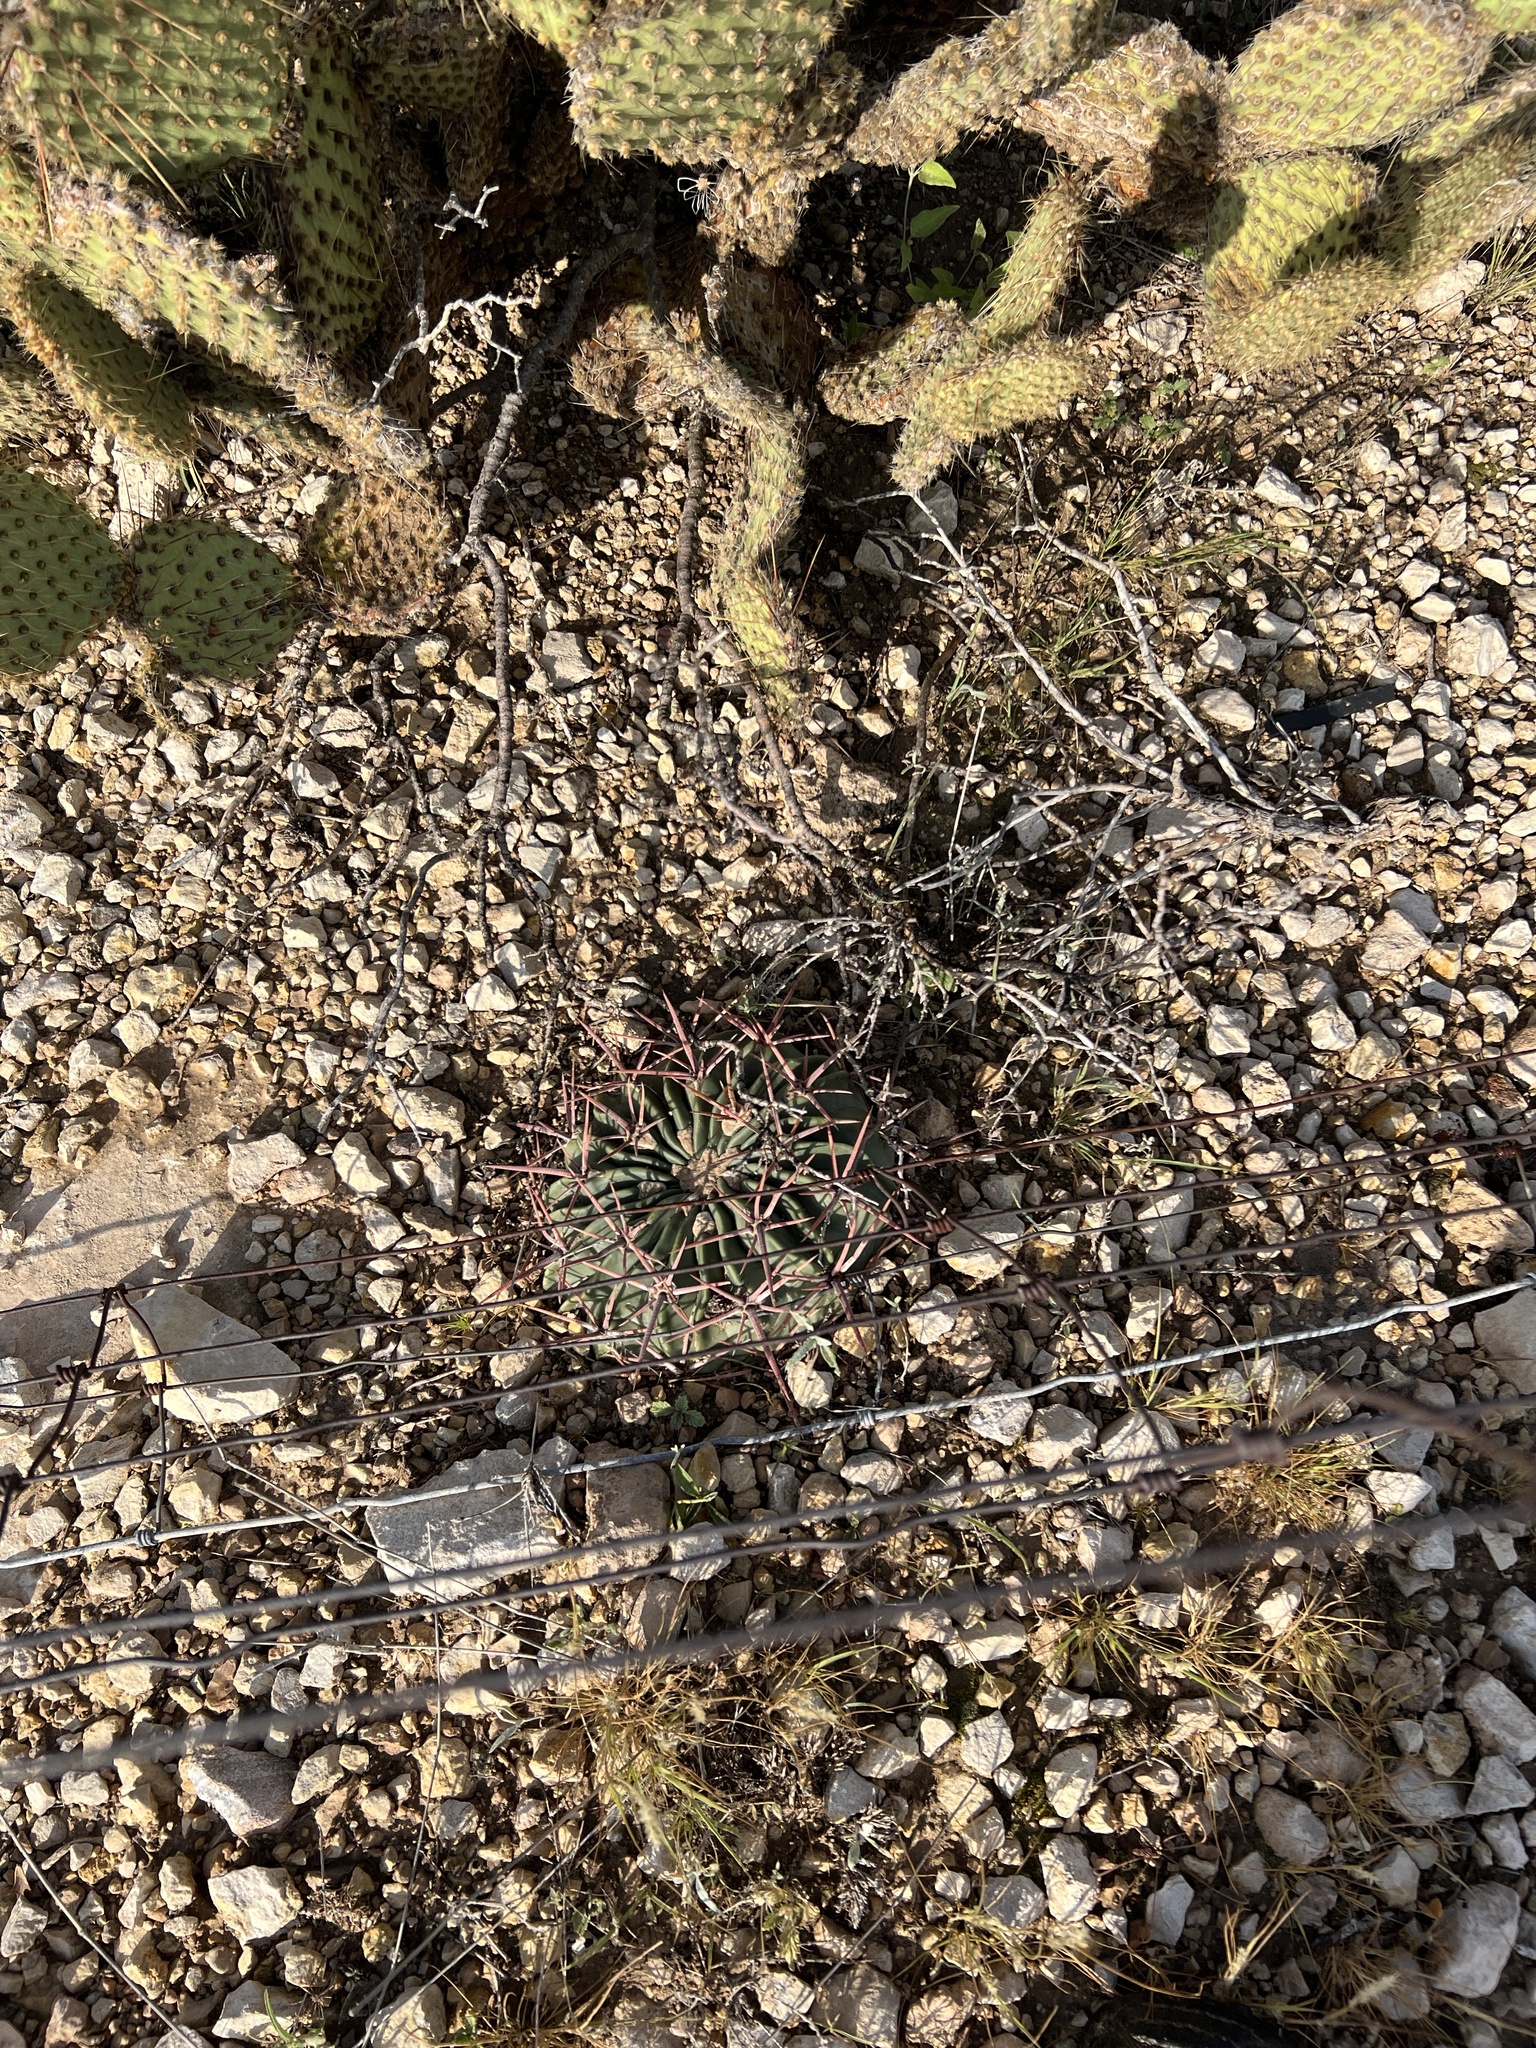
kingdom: Plantae
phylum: Tracheophyta
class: Magnoliopsida
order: Caryophyllales
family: Cactaceae
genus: Echinocactus
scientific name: Echinocactus texensis
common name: Devil's pincushion
